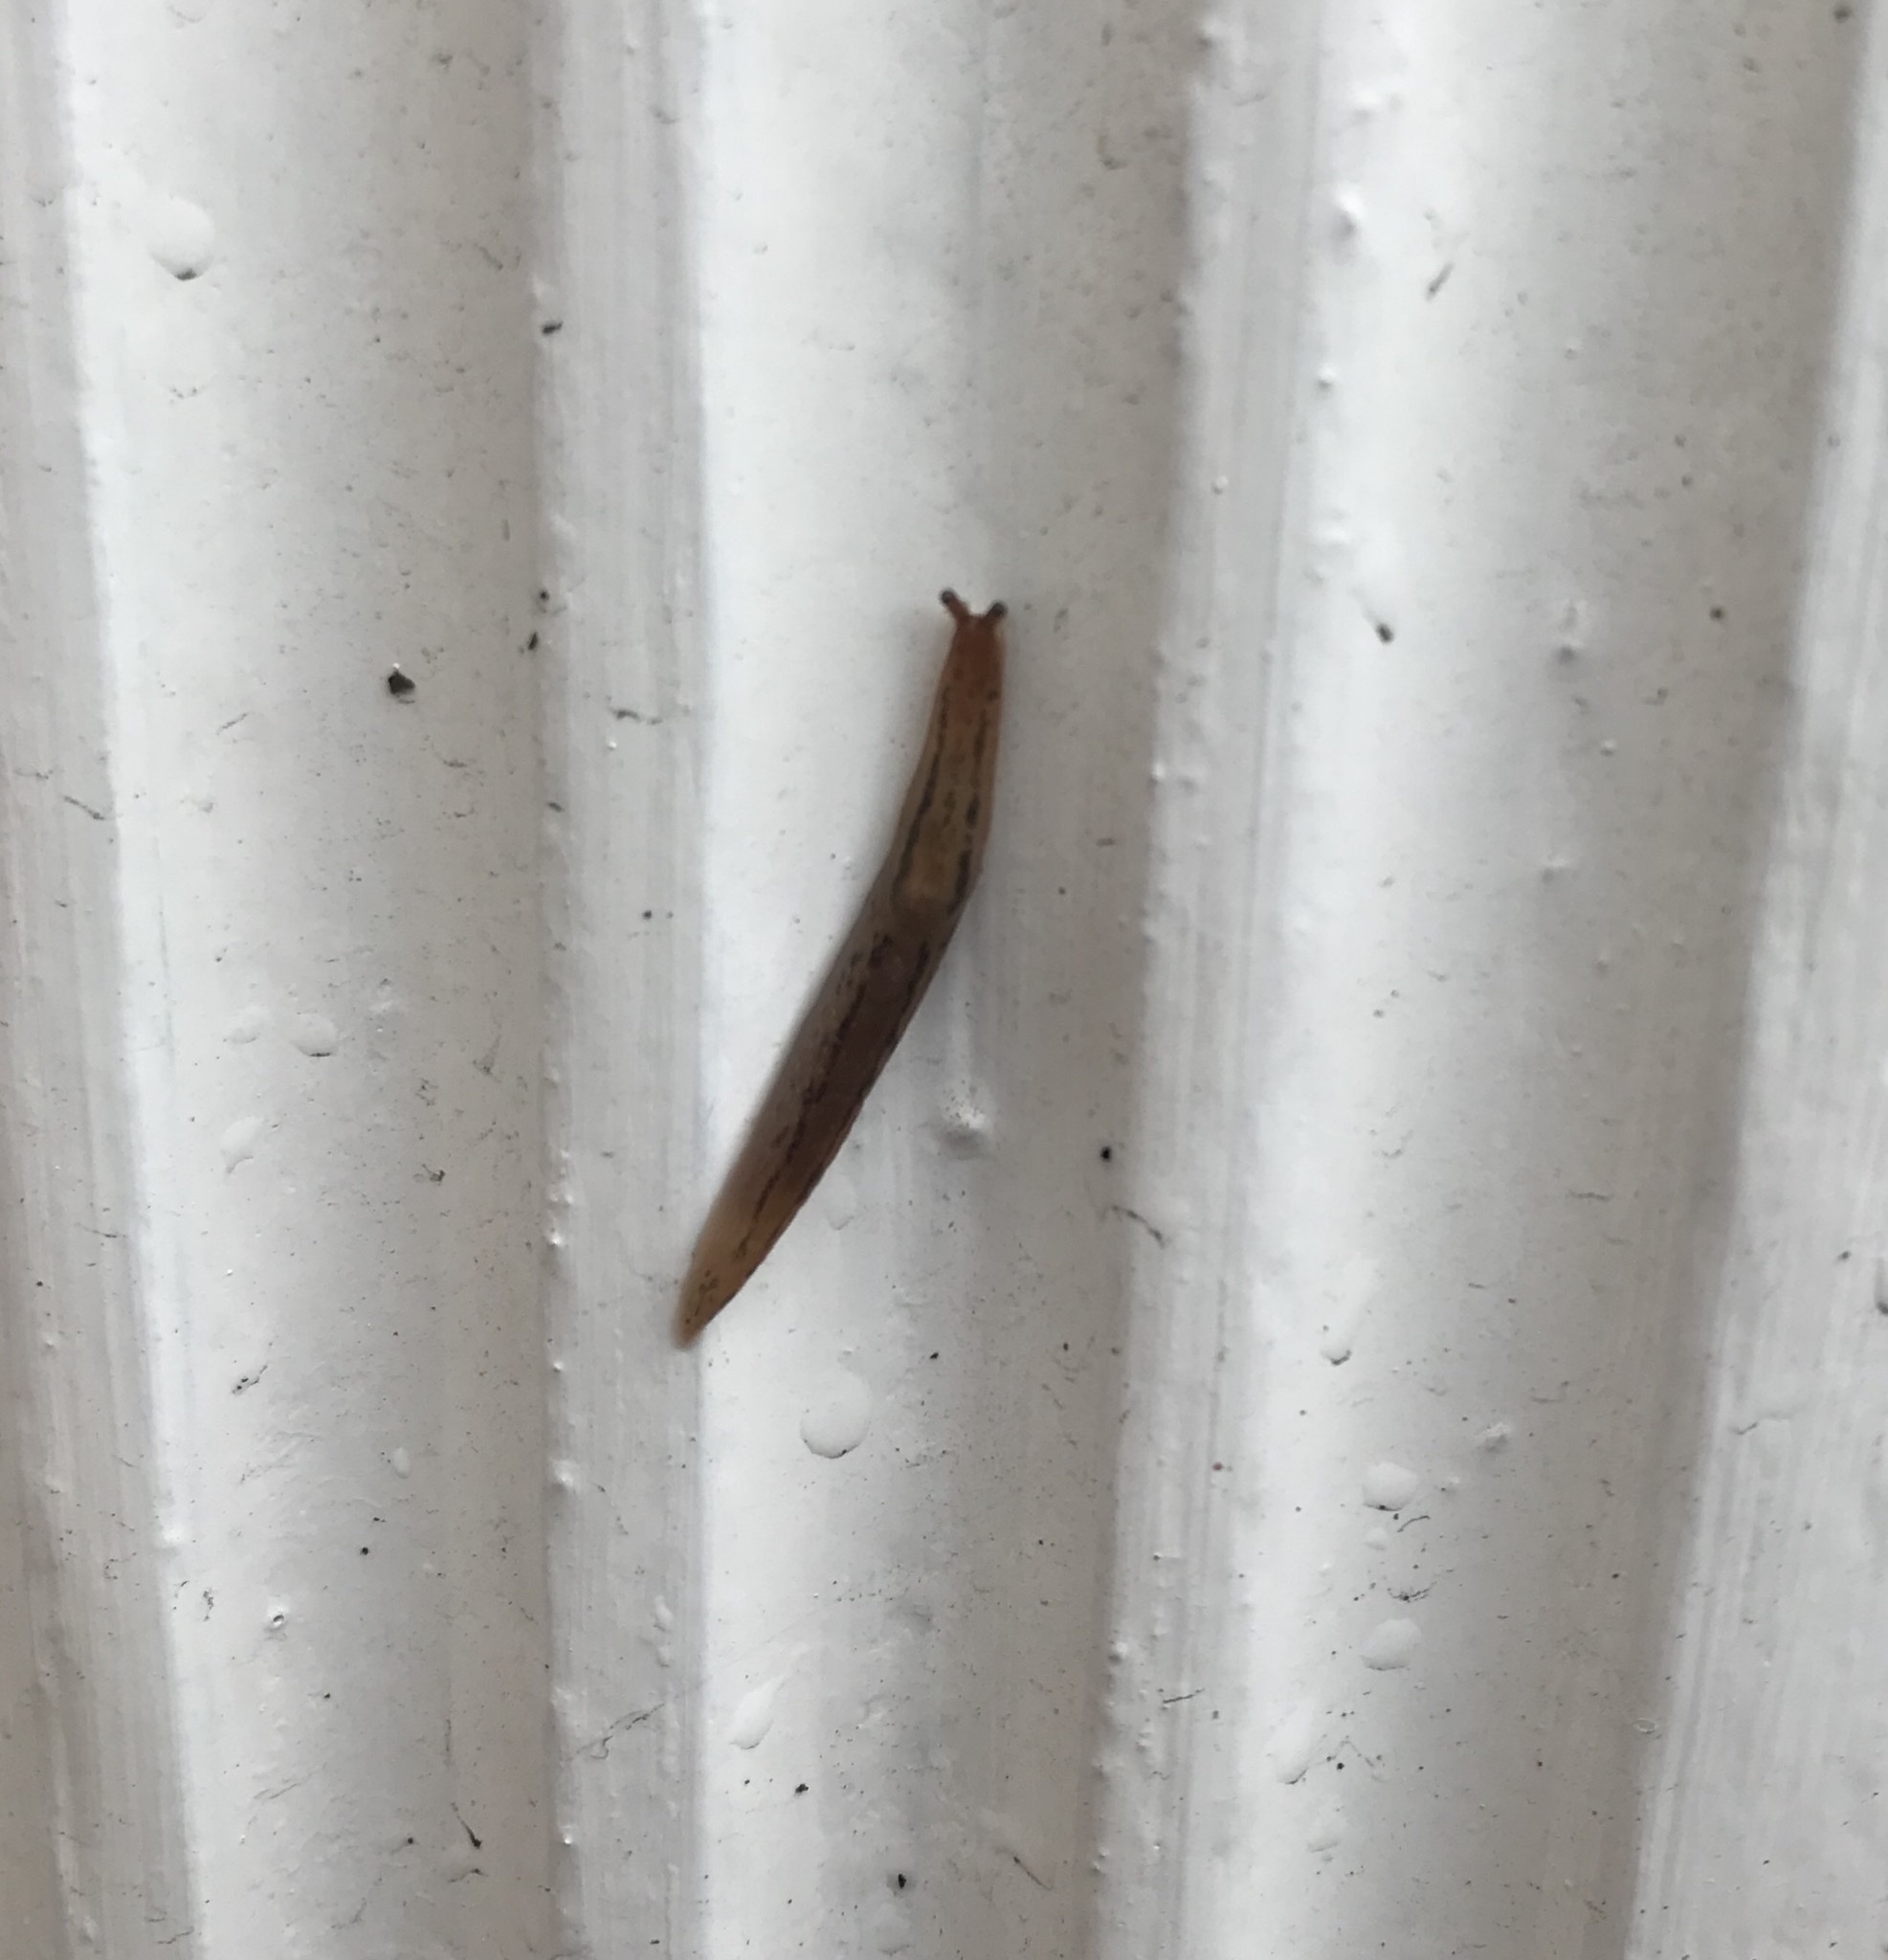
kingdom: Animalia
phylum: Mollusca
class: Gastropoda
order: Stylommatophora
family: Limacidae
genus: Ambigolimax
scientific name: Ambigolimax
